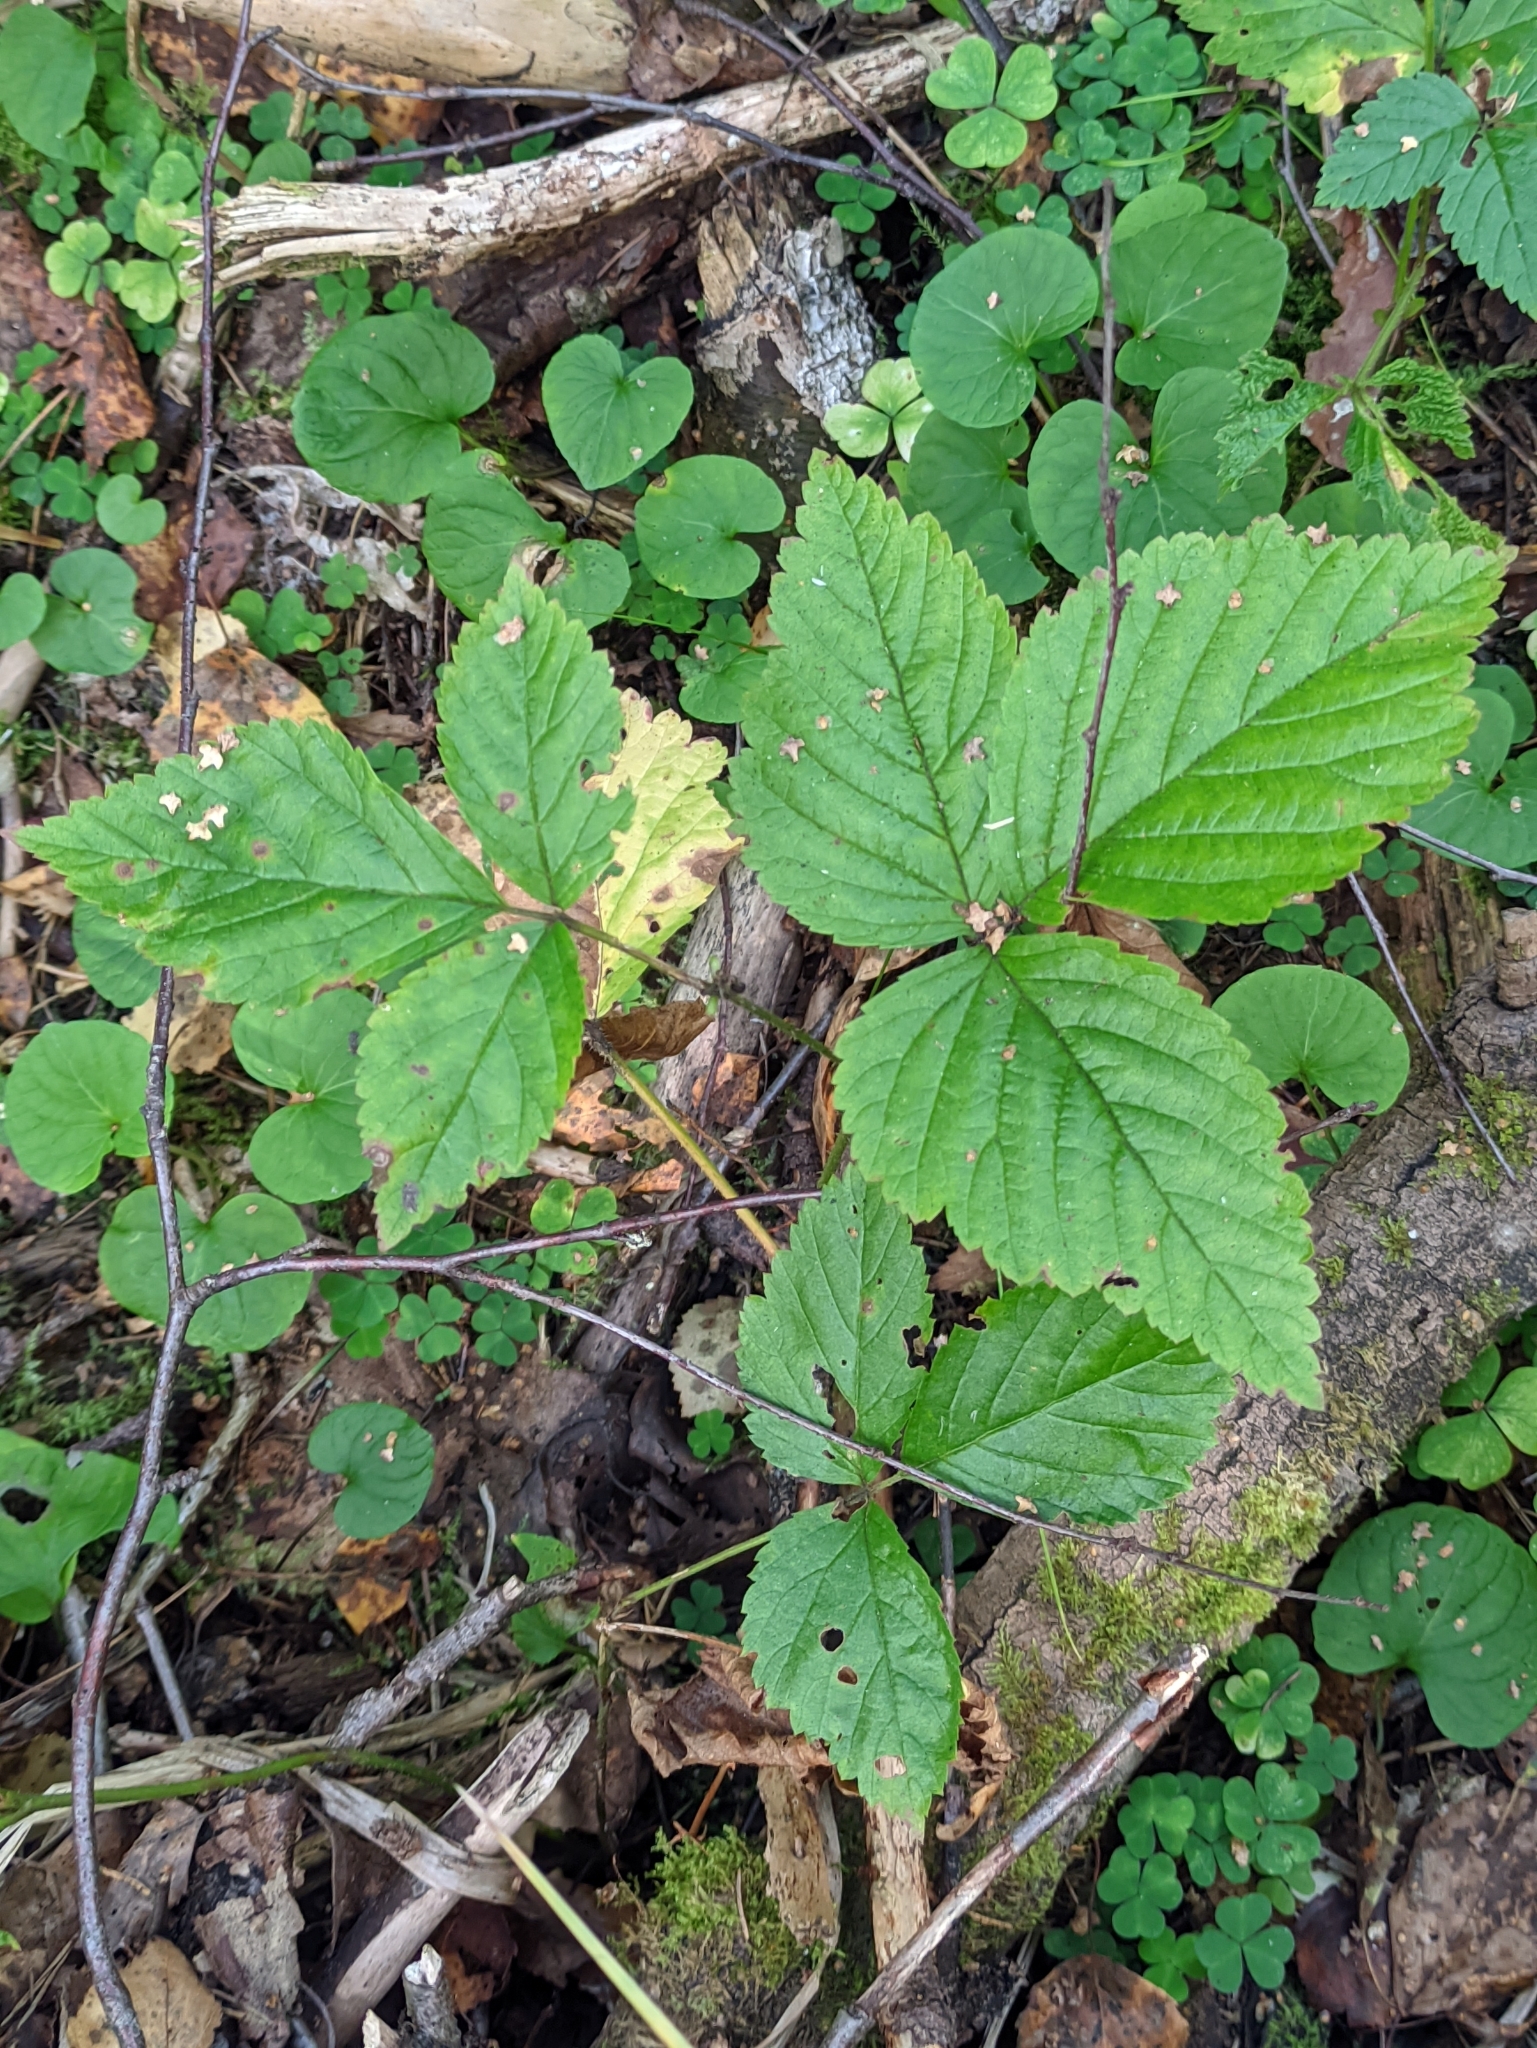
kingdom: Plantae
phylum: Tracheophyta
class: Magnoliopsida
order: Rosales
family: Rosaceae
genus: Rubus
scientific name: Rubus saxatilis
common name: Stone bramble
